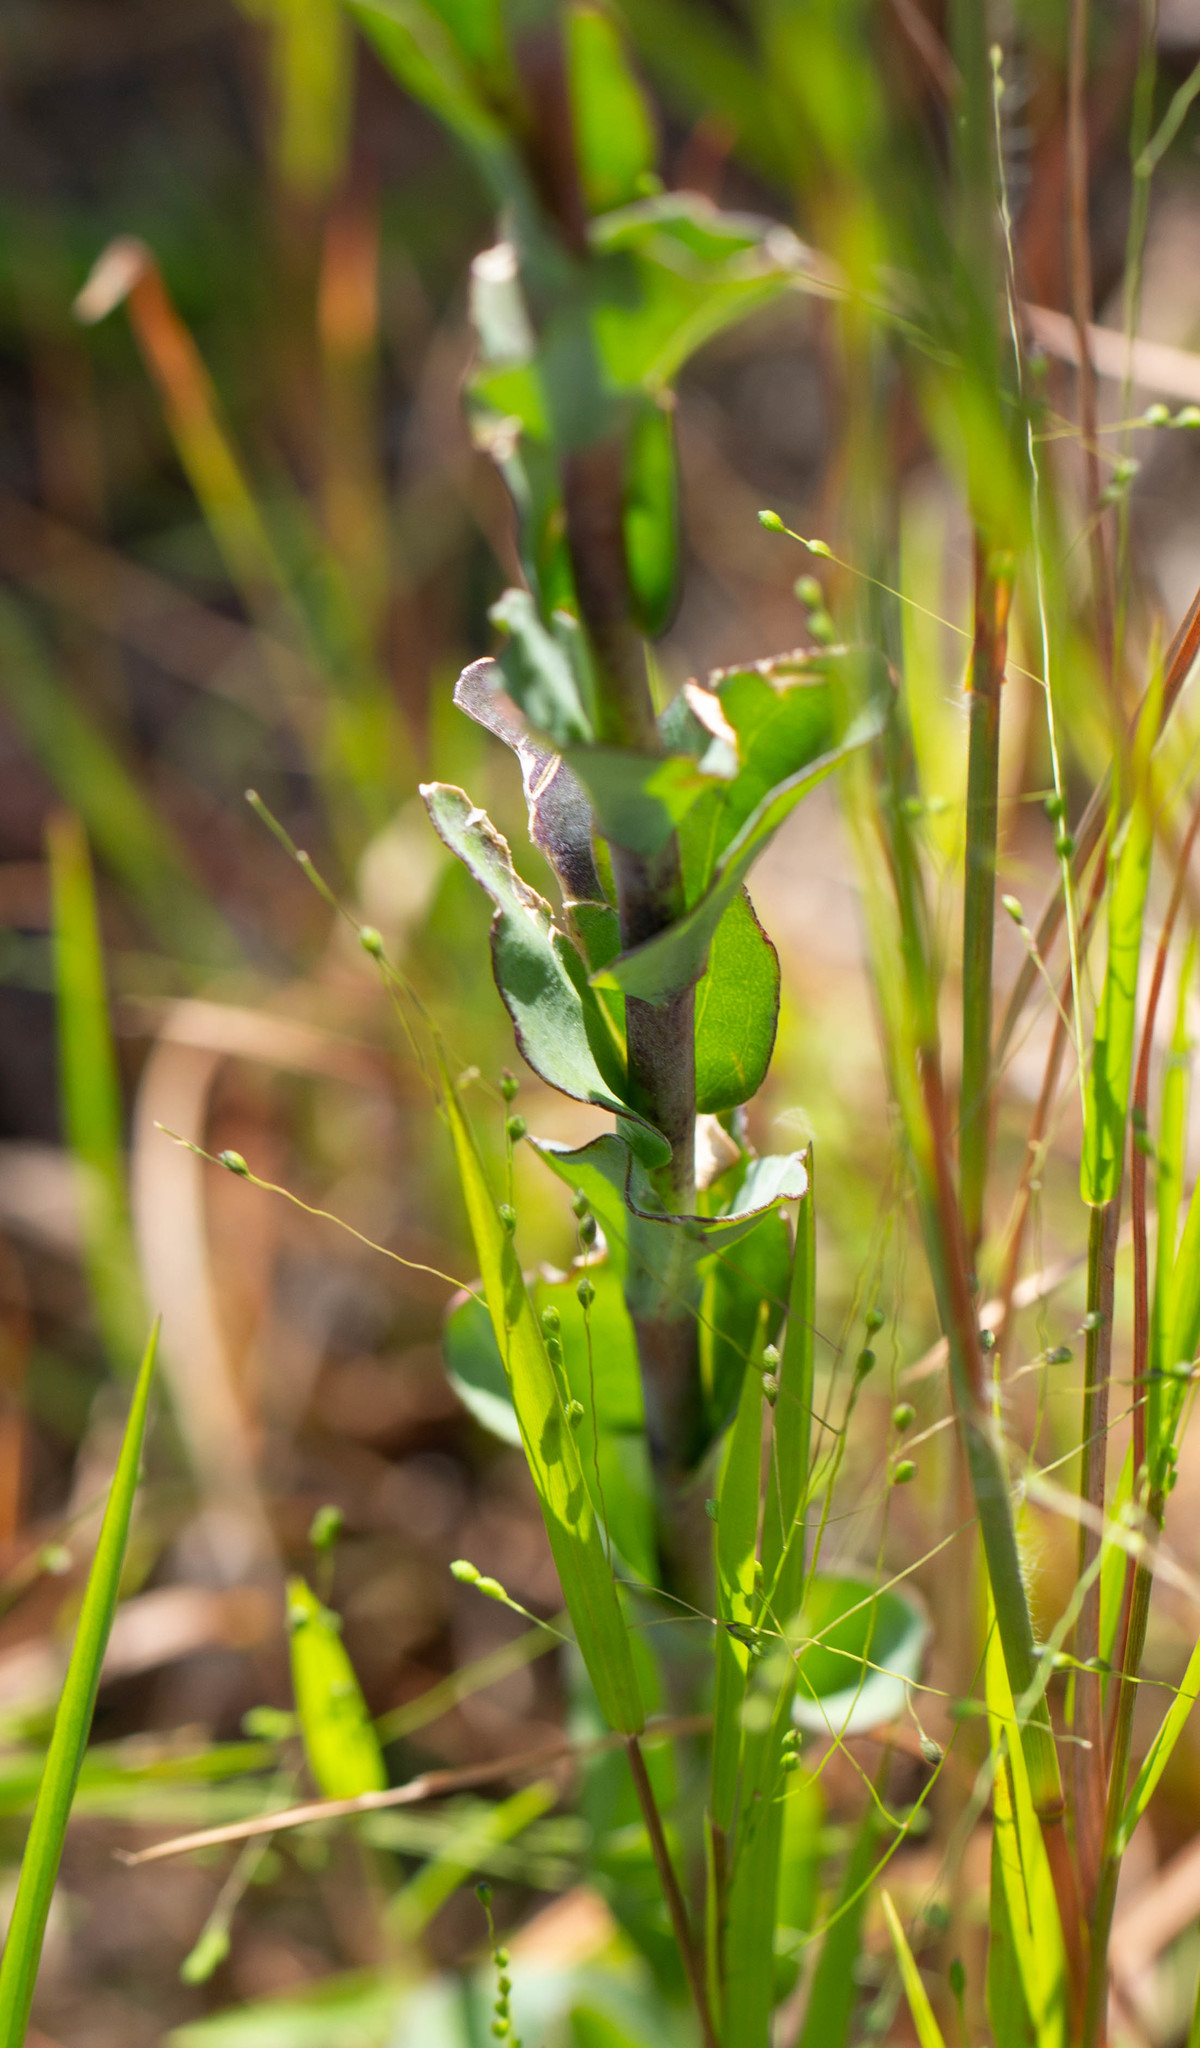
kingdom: Plantae
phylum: Tracheophyta
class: Magnoliopsida
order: Asterales
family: Asteraceae
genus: Carphephorus
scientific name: Carphephorus odoratissimus
